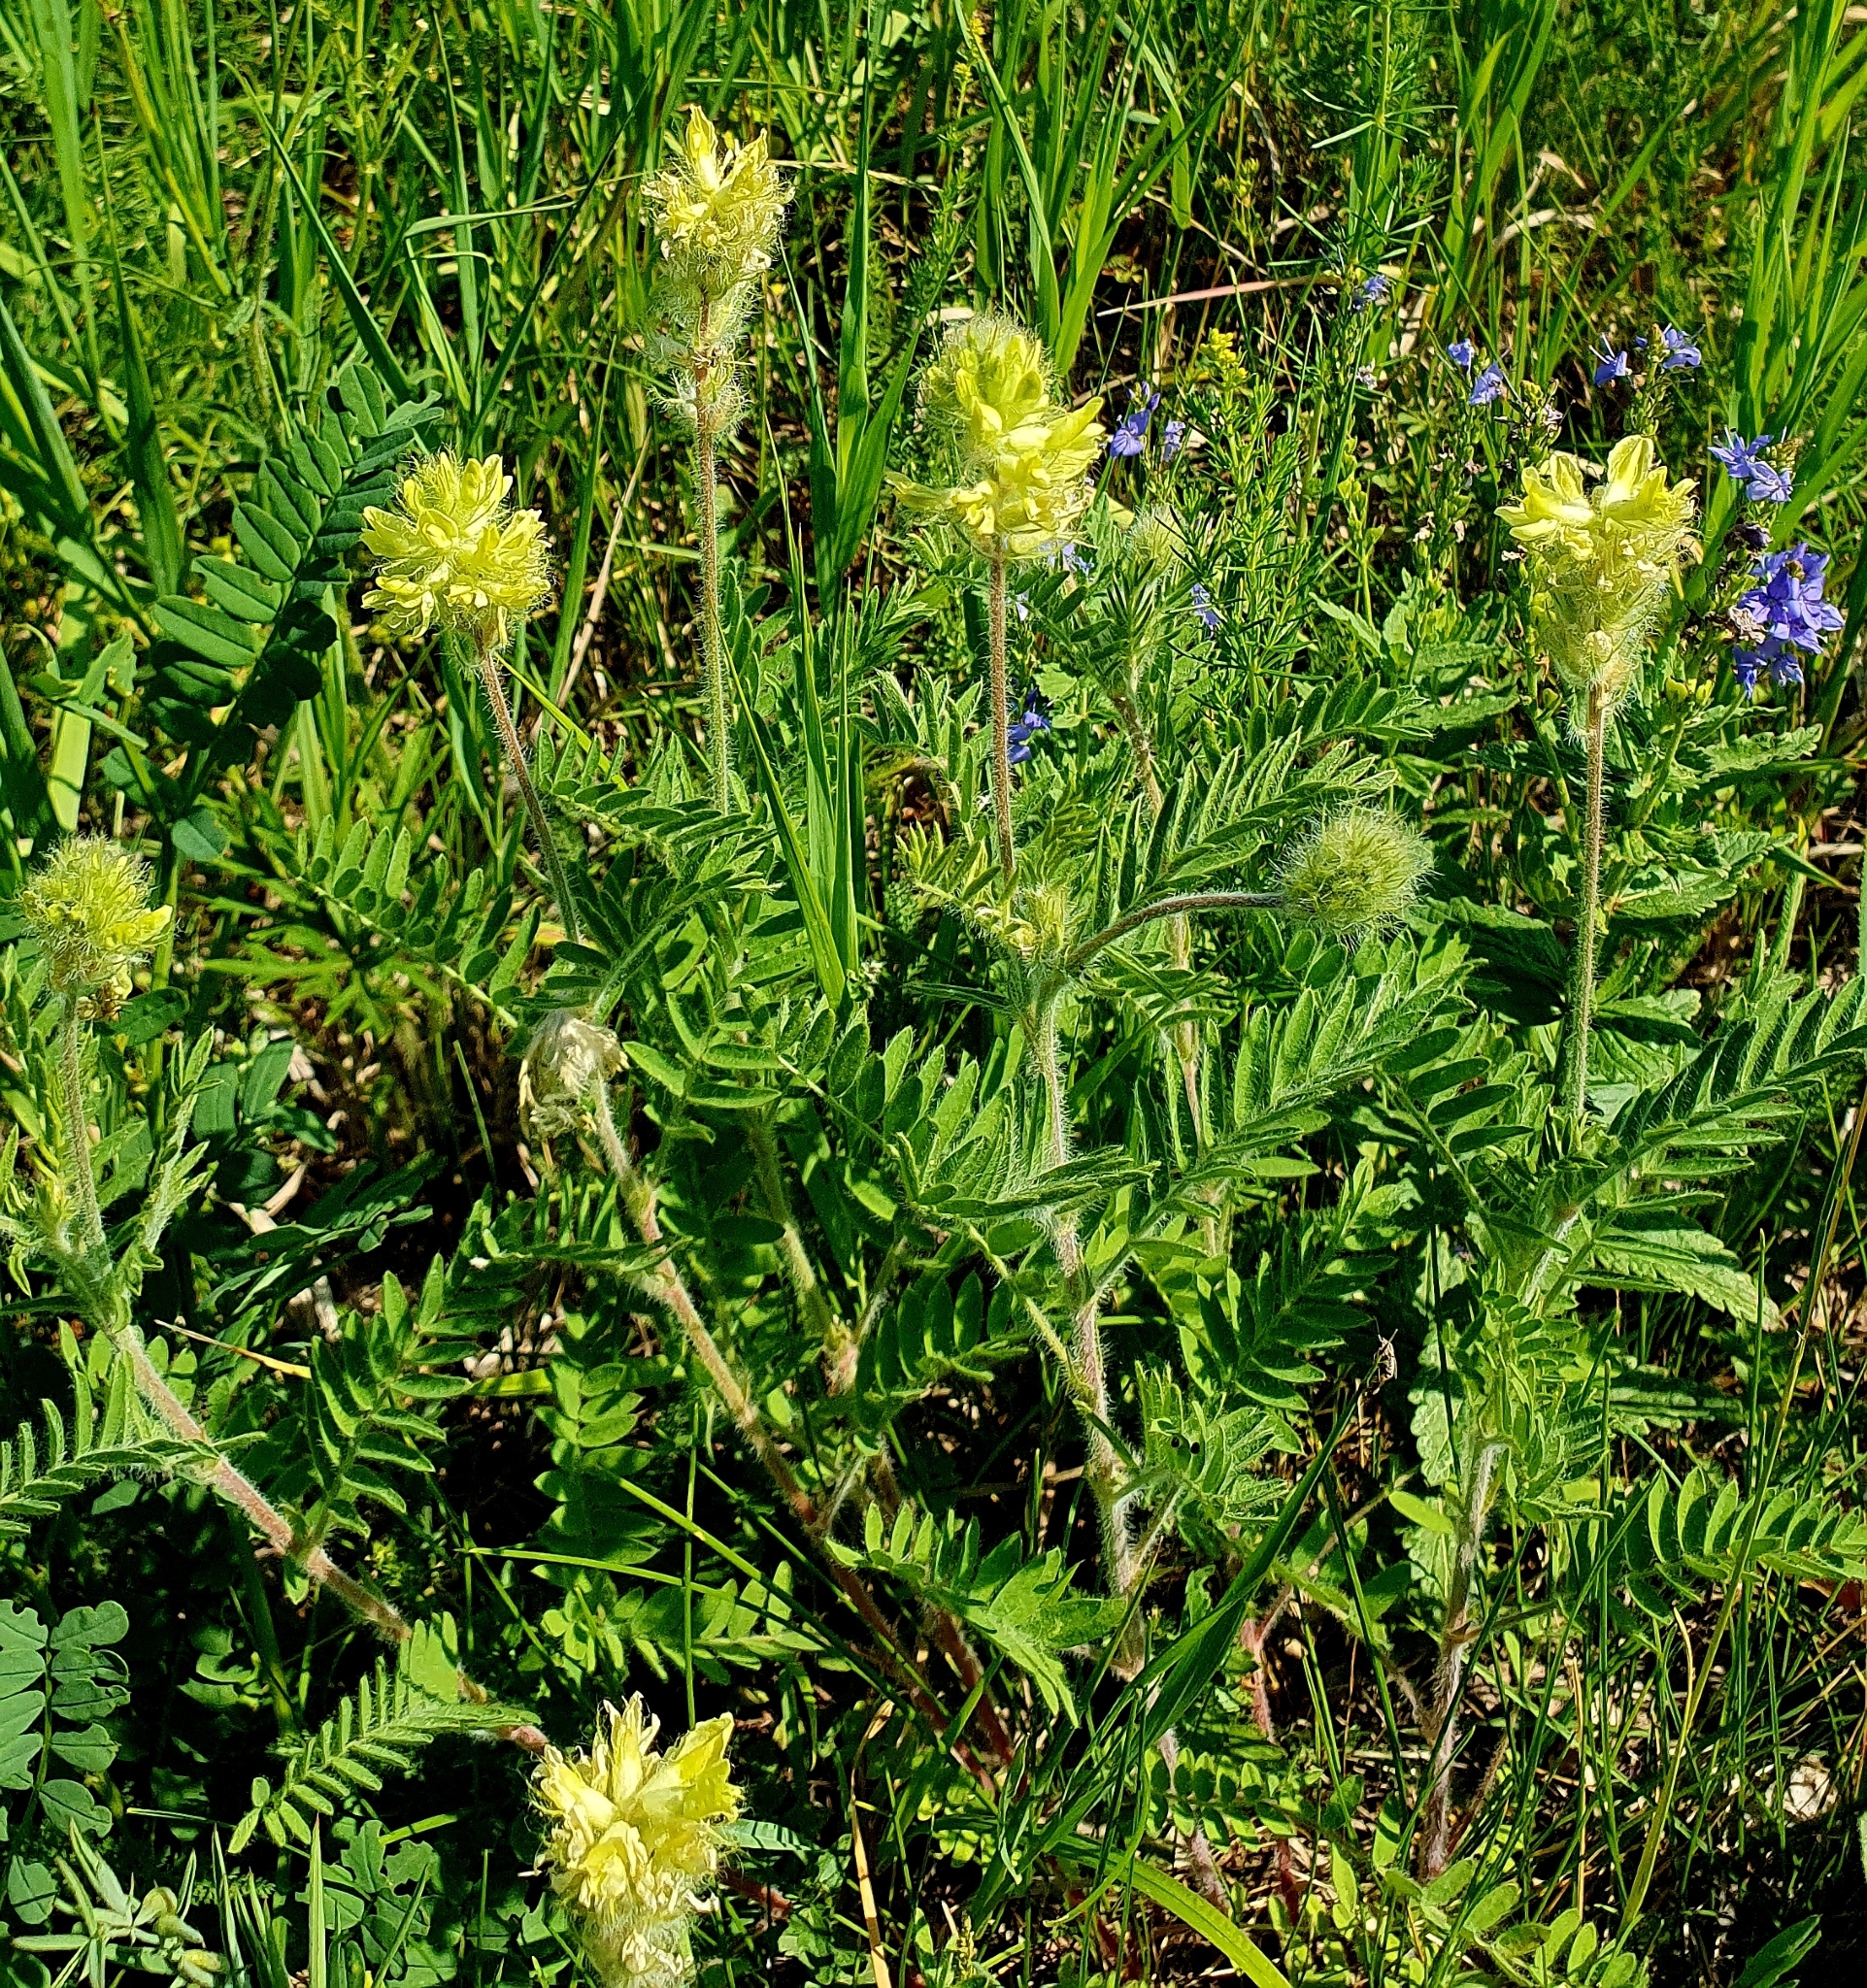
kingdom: Plantae
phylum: Tracheophyta
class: Magnoliopsida
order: Fabales
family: Fabaceae
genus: Oxytropis
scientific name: Oxytropis pilosa
